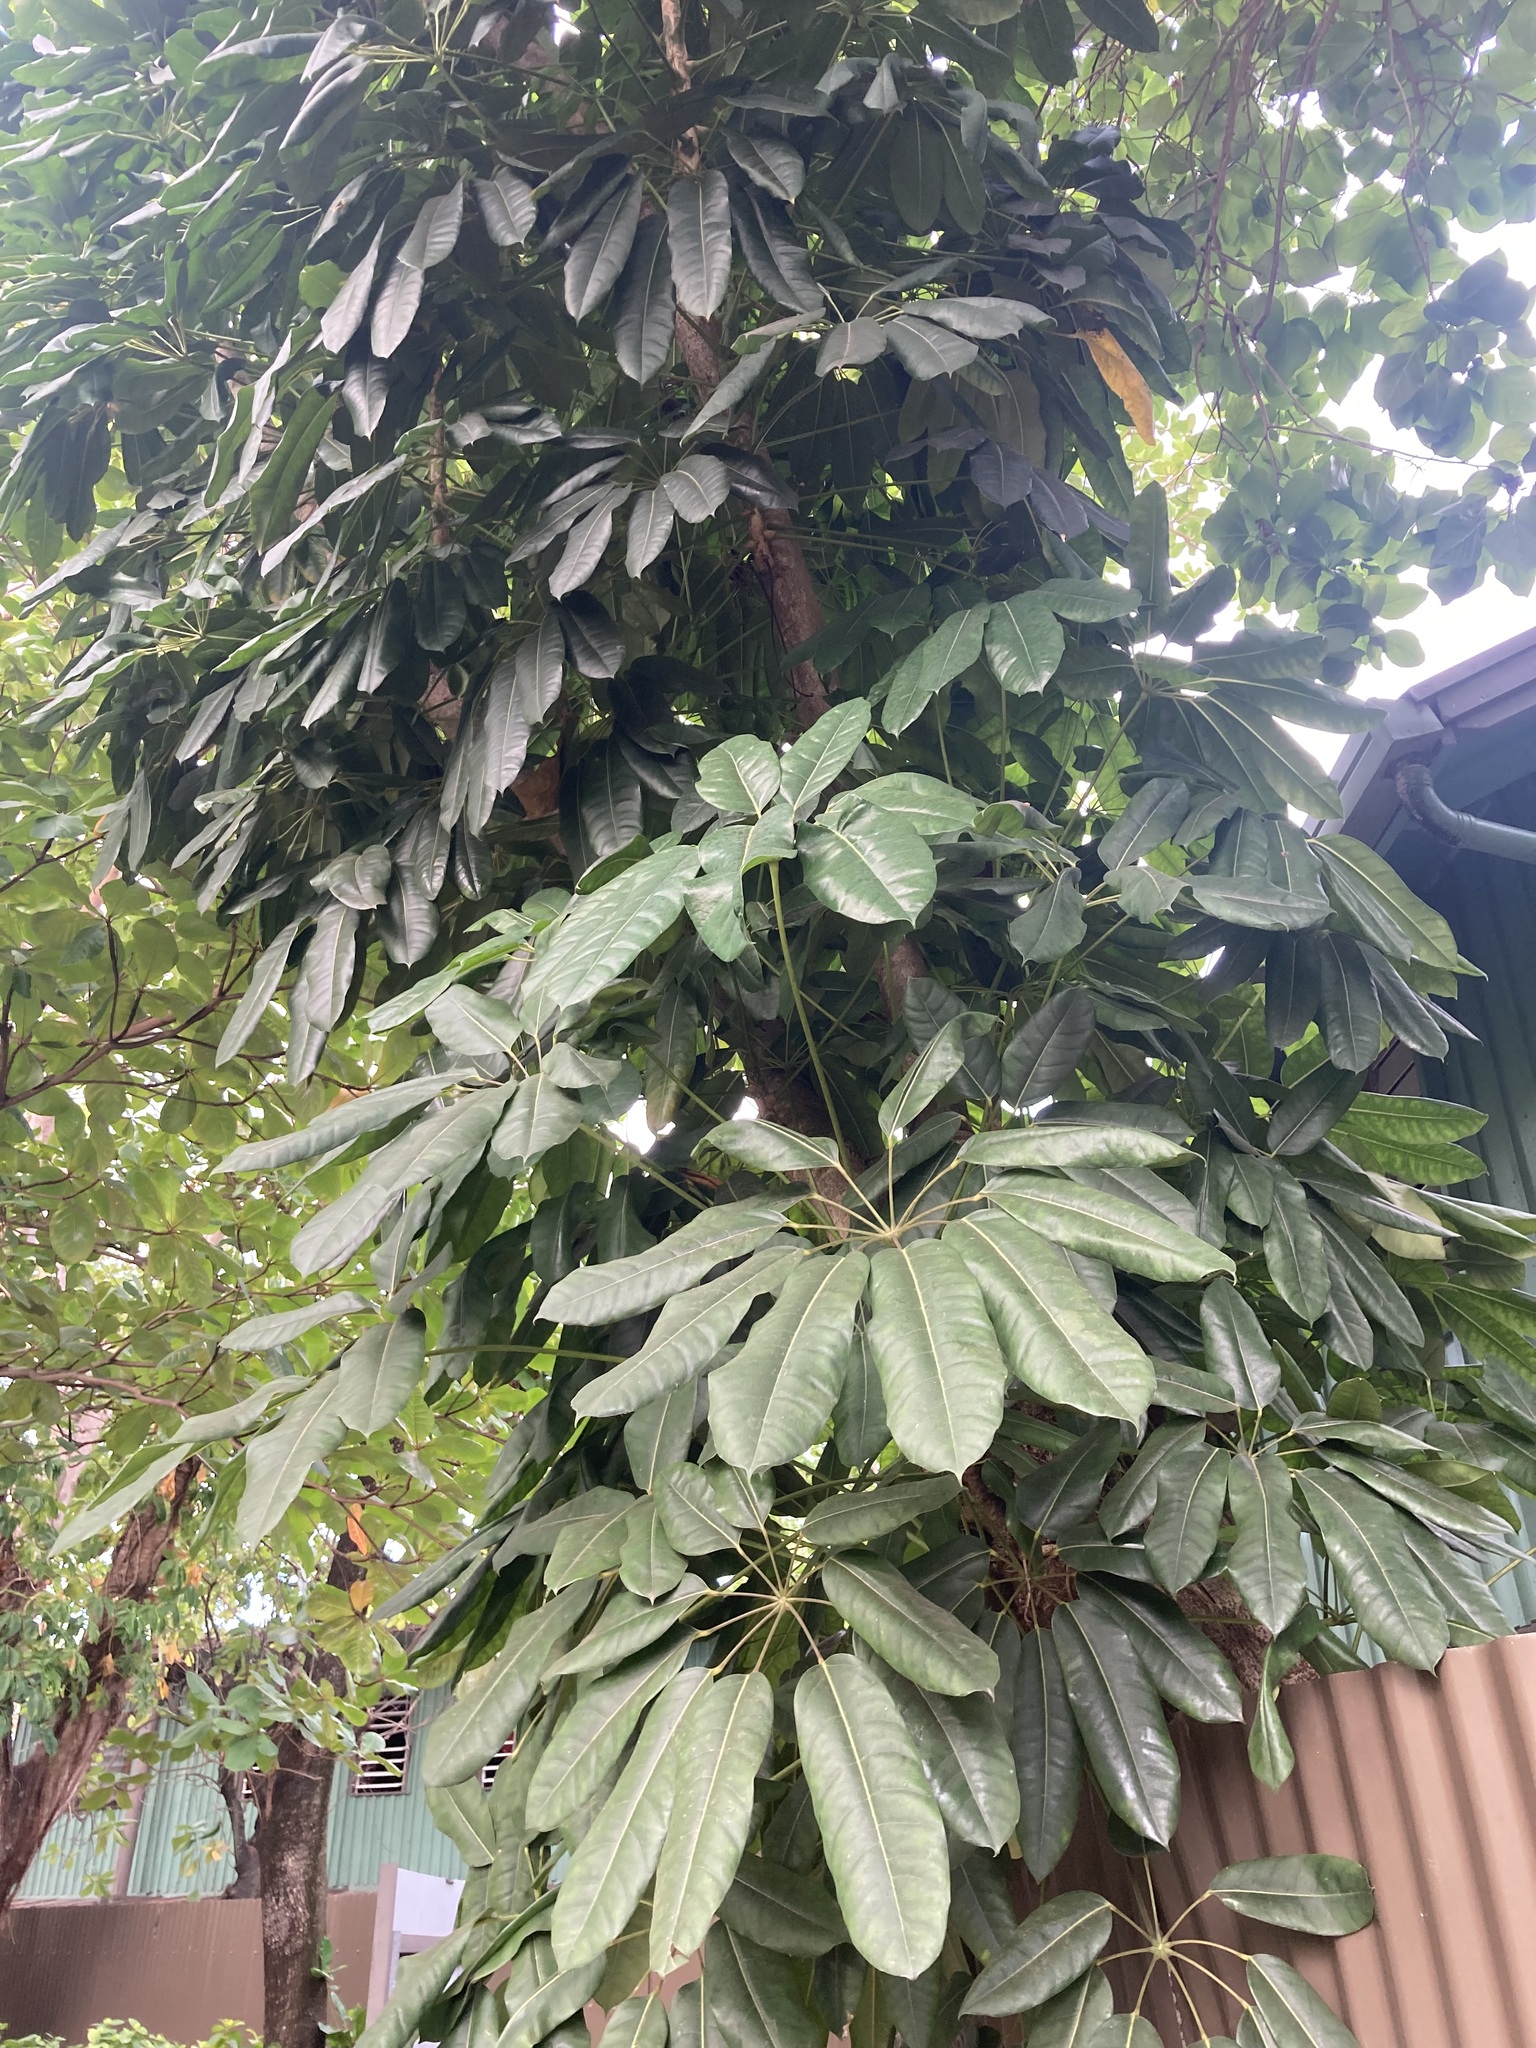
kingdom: Plantae
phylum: Tracheophyta
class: Magnoliopsida
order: Apiales
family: Araliaceae
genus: Heptapleurum
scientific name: Heptapleurum actinophyllum
